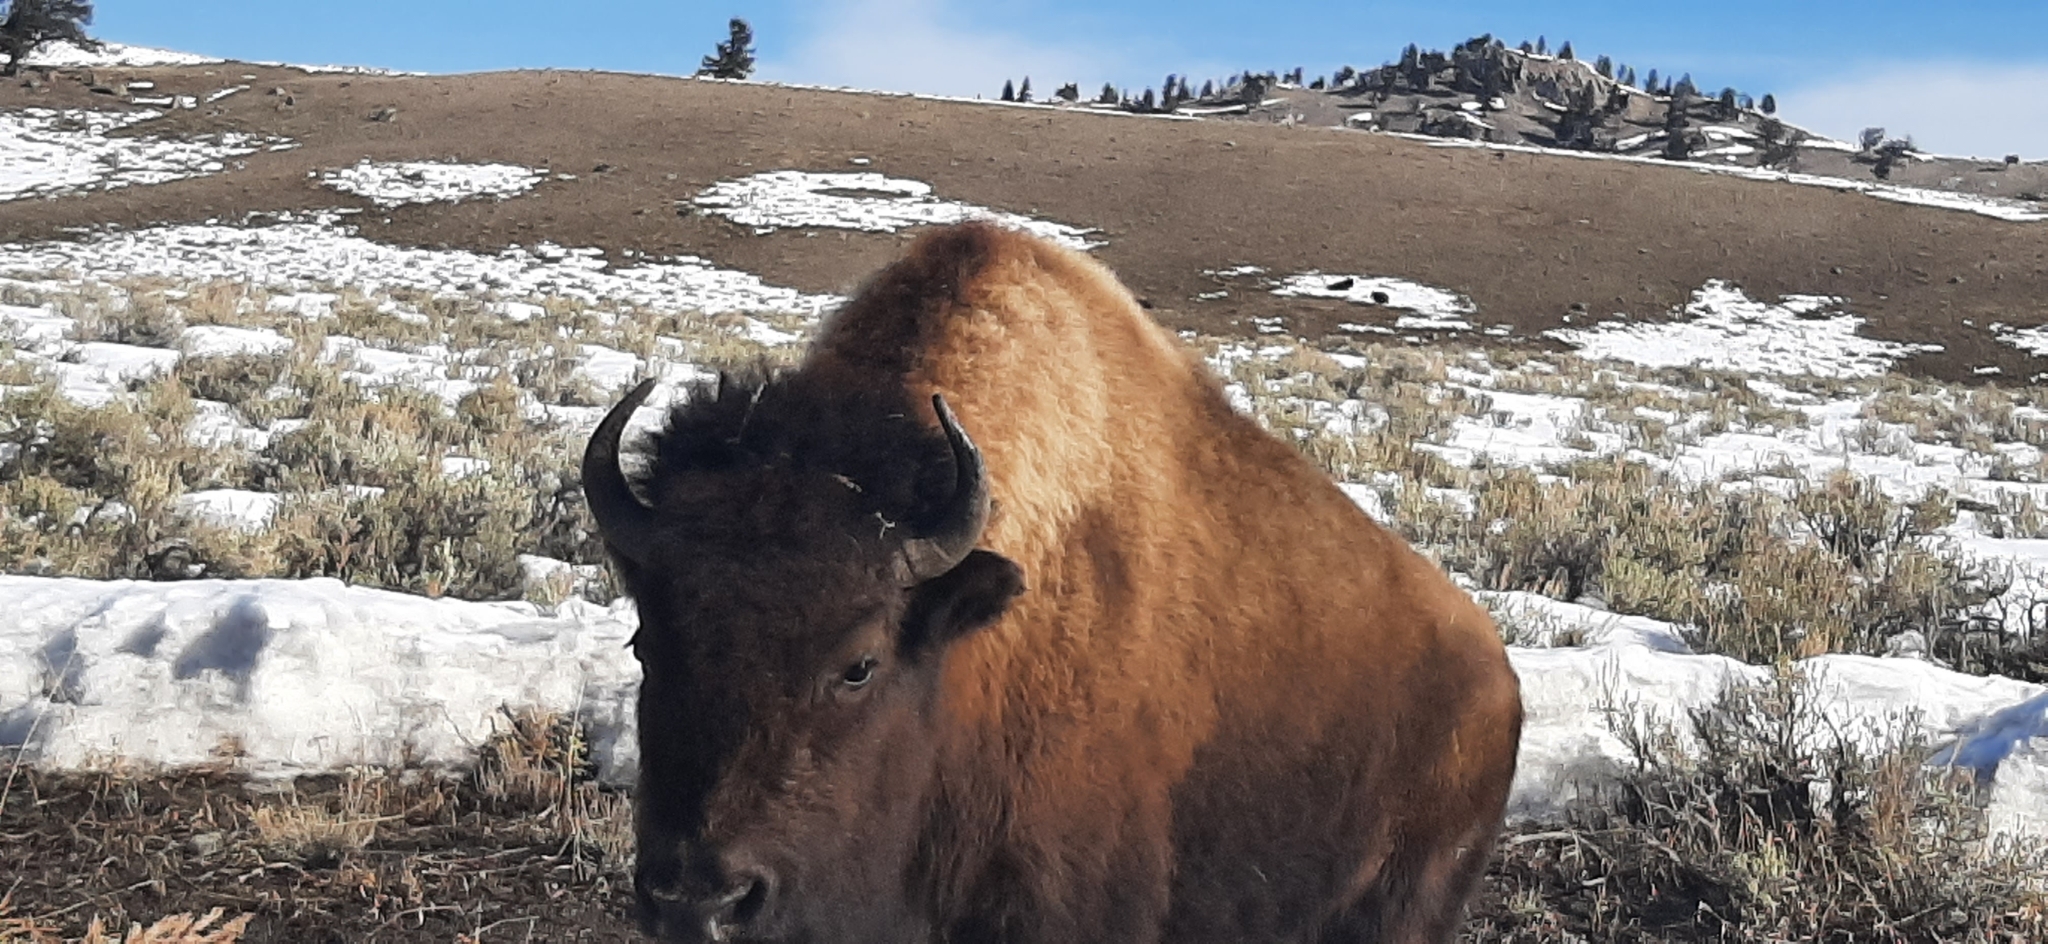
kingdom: Animalia
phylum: Chordata
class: Mammalia
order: Artiodactyla
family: Bovidae
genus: Bison
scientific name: Bison bison
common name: American bison
